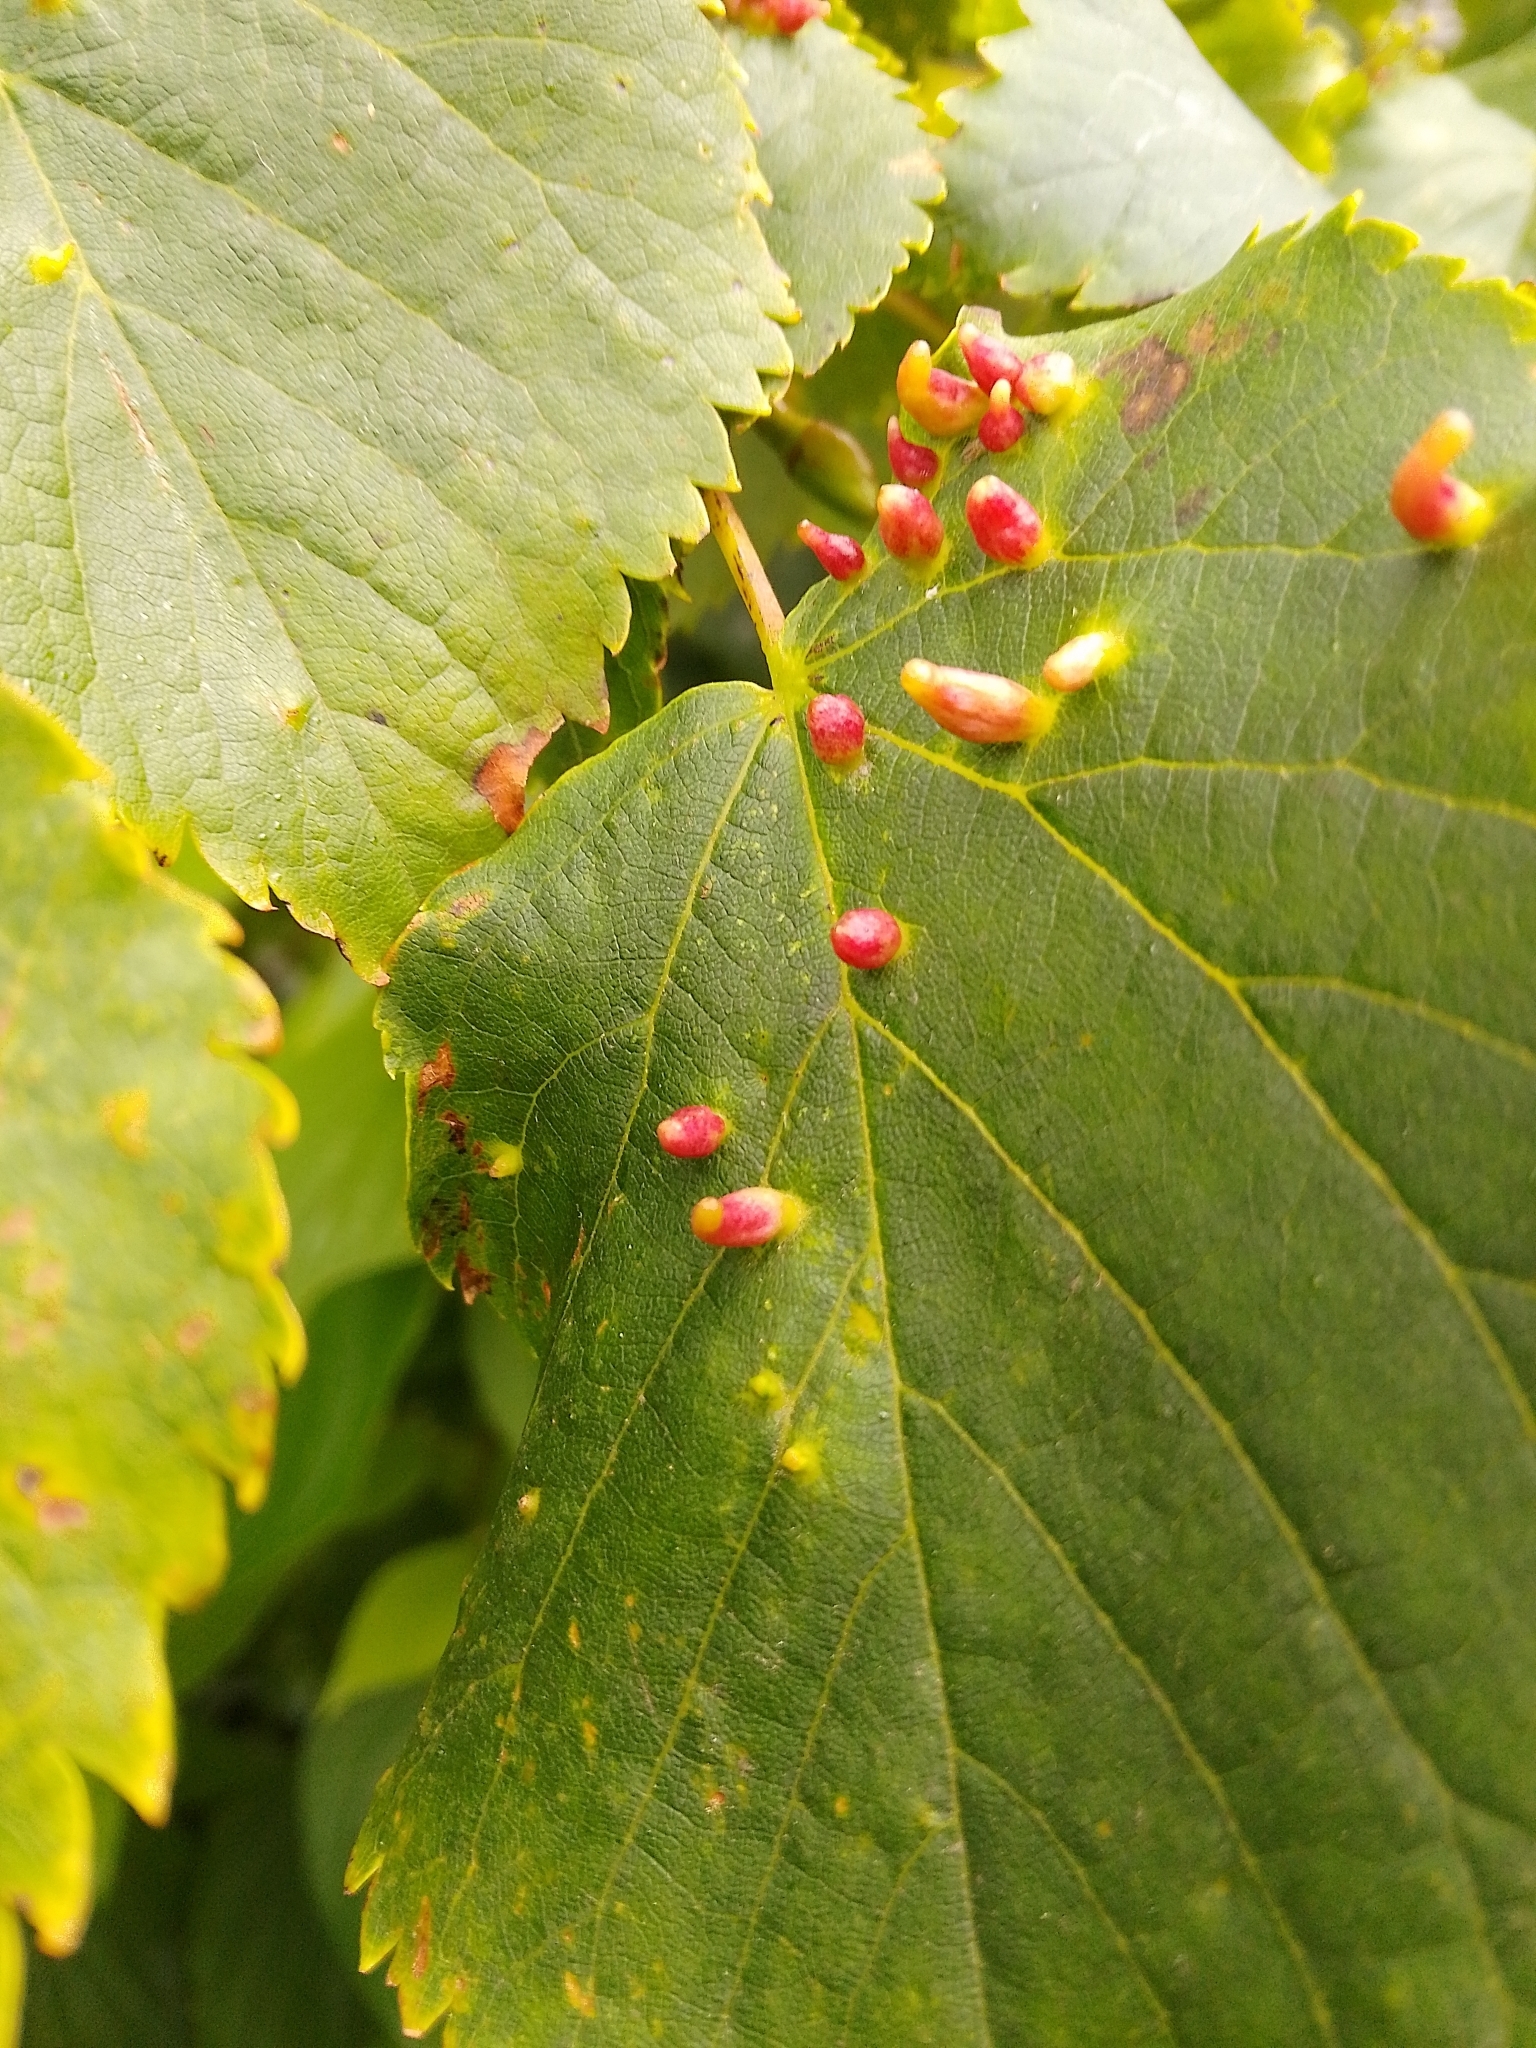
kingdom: Animalia
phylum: Arthropoda
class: Arachnida
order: Trombidiformes
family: Eriophyidae
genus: Eriophyes
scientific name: Eriophyes tiliae
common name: Red nail gall mite
